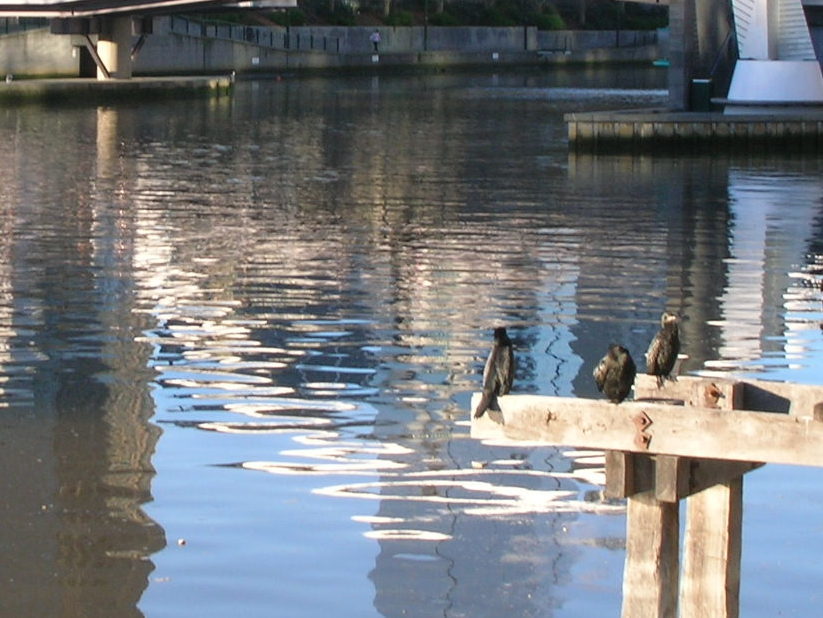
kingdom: Animalia
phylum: Chordata
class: Aves
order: Suliformes
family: Phalacrocoracidae
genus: Phalacrocorax
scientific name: Phalacrocorax sulcirostris
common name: Little black cormorant
